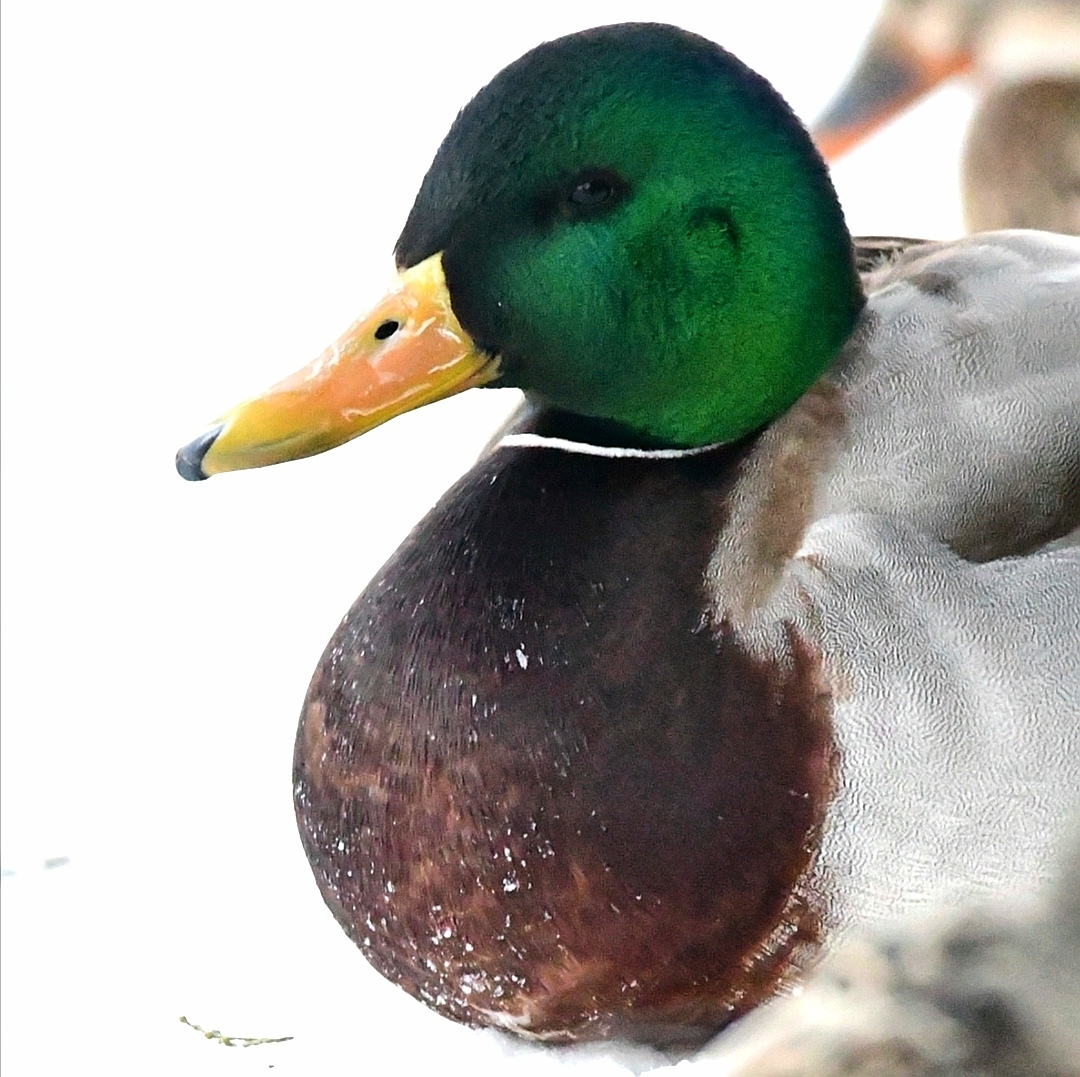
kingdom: Animalia
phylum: Chordata
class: Aves
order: Anseriformes
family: Anatidae
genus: Anas
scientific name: Anas platyrhynchos
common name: Mallard
